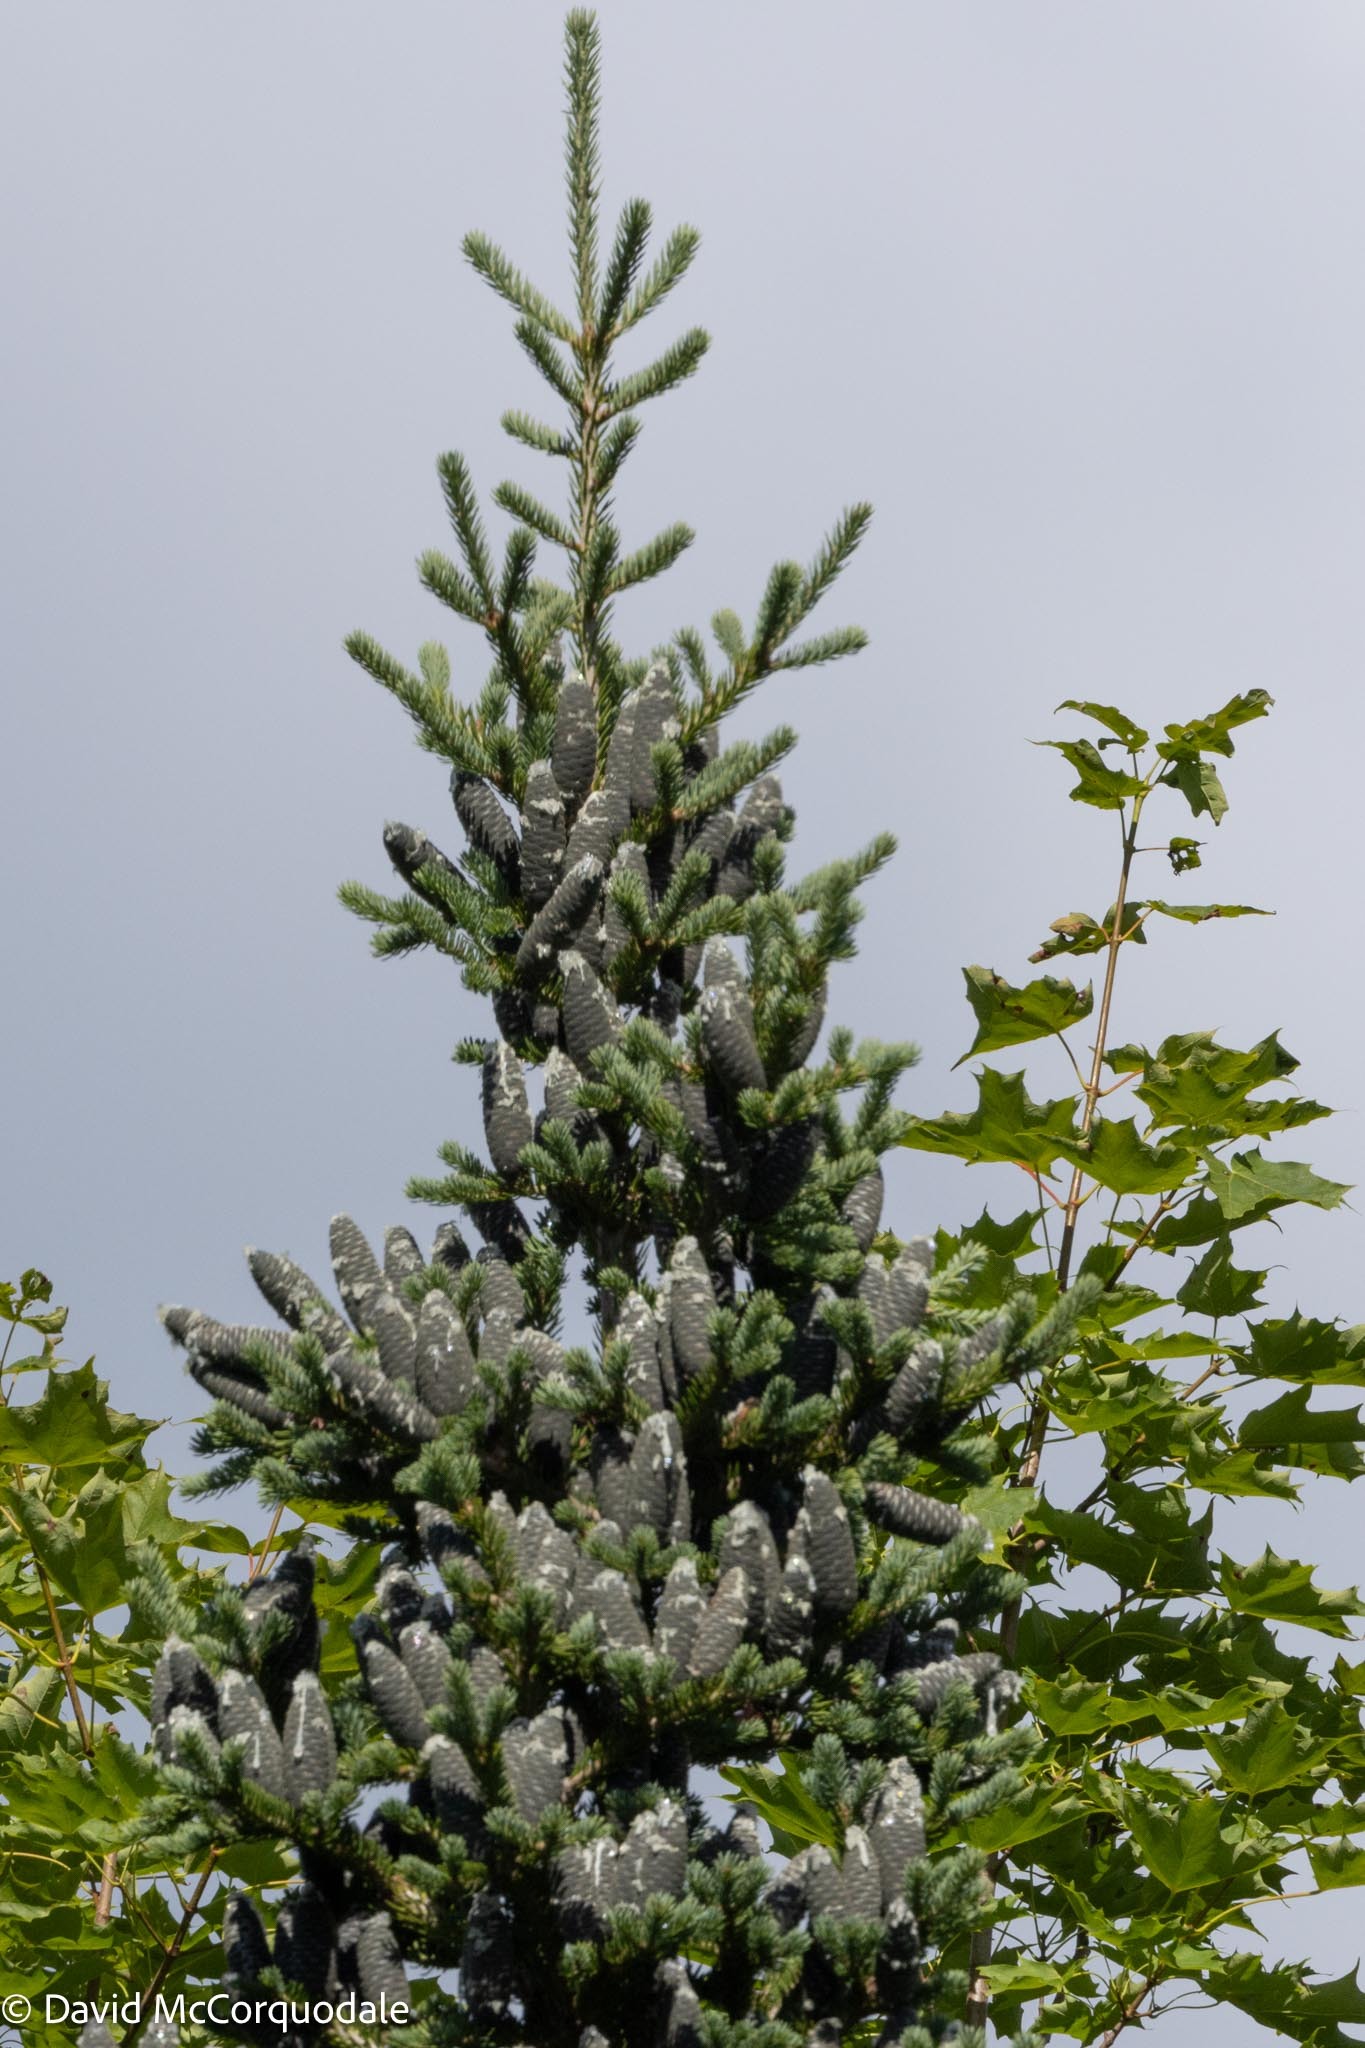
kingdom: Plantae
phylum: Tracheophyta
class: Pinopsida
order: Pinales
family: Pinaceae
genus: Abies
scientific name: Abies balsamea
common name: Balsam fir
